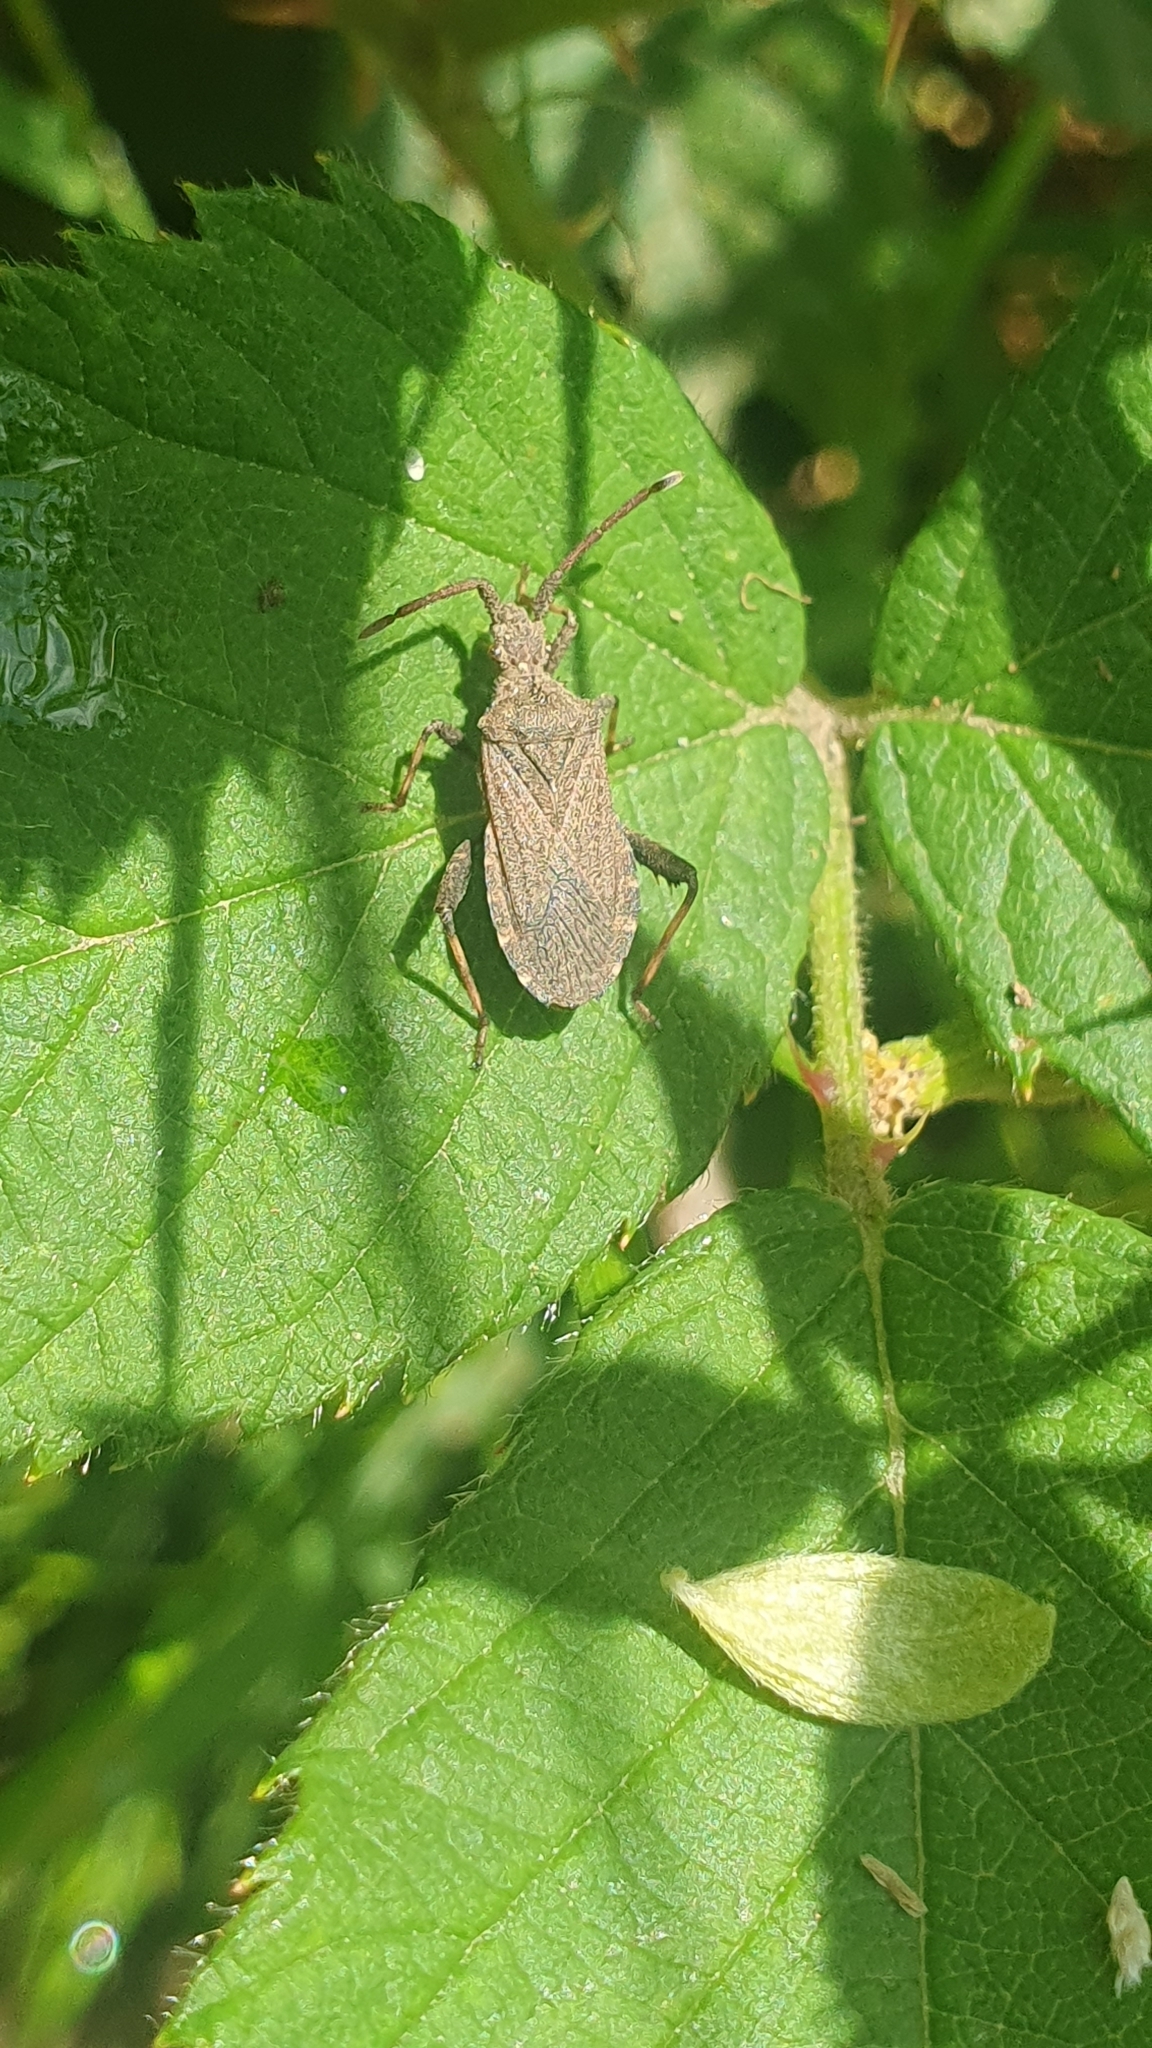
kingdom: Animalia
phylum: Arthropoda
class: Insecta
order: Hemiptera
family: Coreidae
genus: Ceraleptus
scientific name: Ceraleptus gracilicornis
